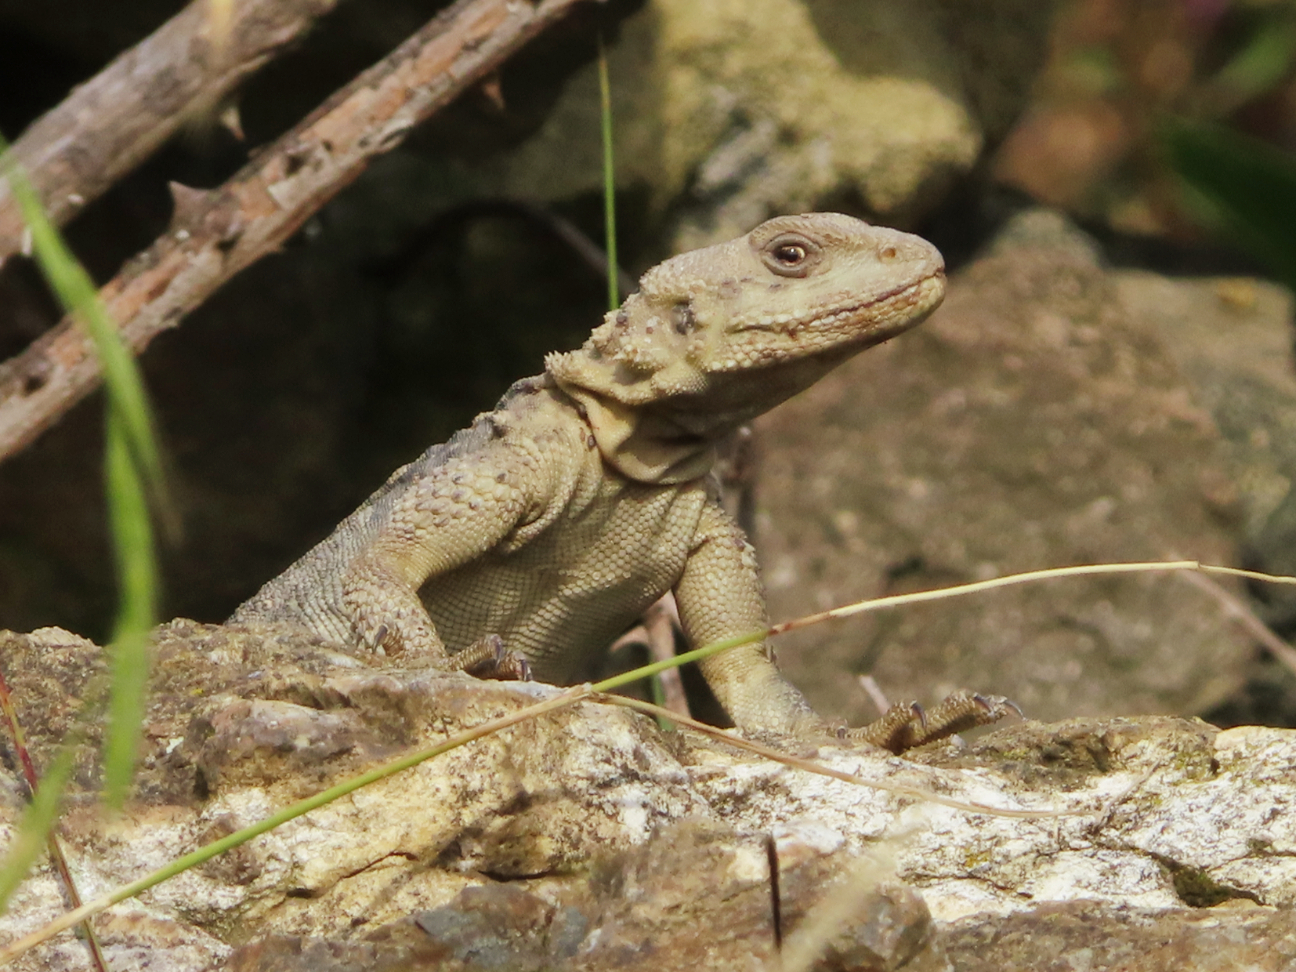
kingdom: Animalia
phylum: Chordata
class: Squamata
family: Agamidae
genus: Paralaudakia
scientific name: Paralaudakia caucasia
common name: Caucasian agama
